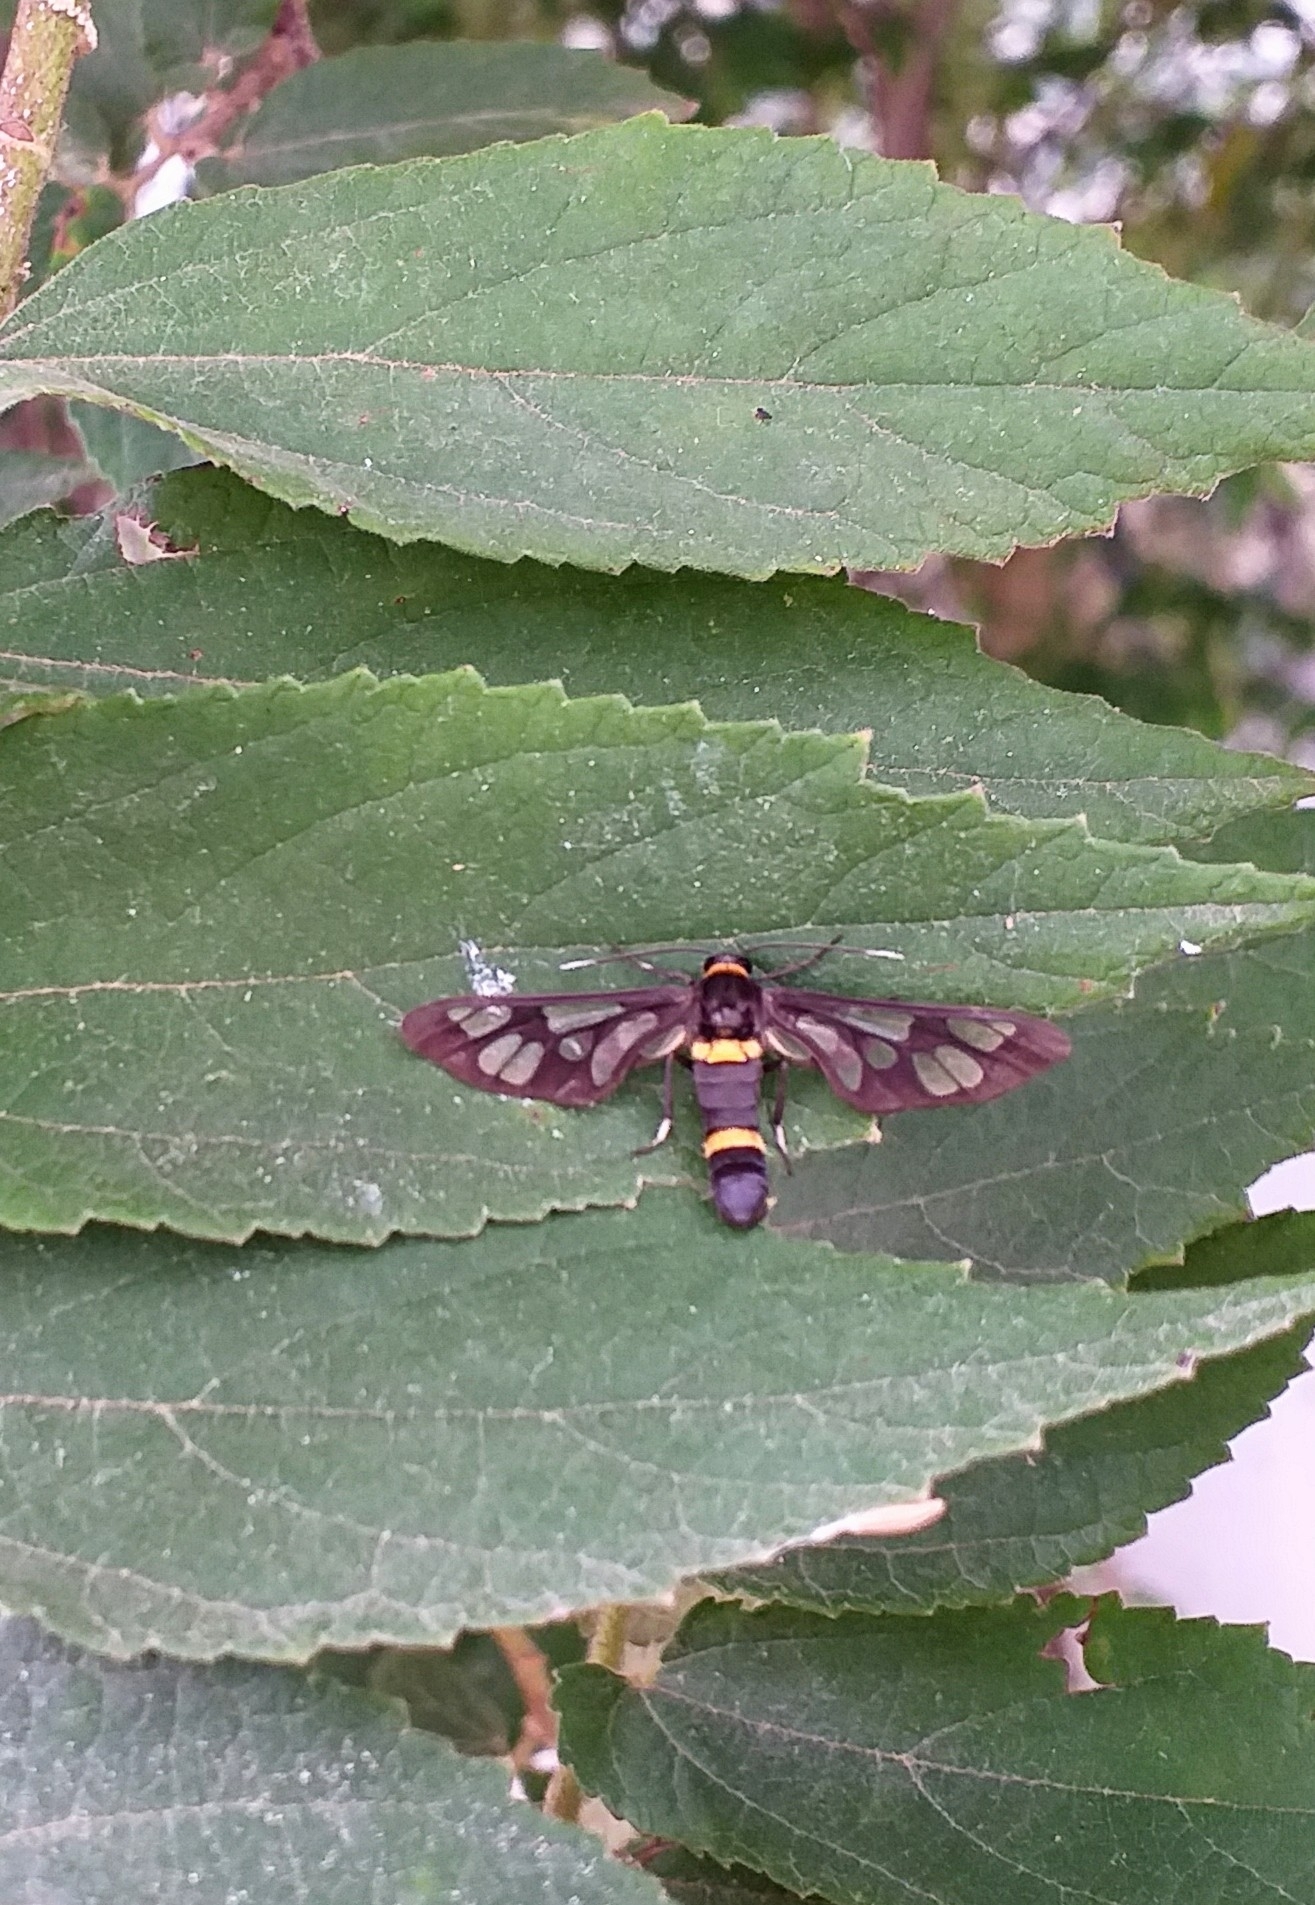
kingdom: Animalia
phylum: Arthropoda
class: Insecta
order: Lepidoptera
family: Erebidae
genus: Syntomoides
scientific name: Syntomoides imaon
